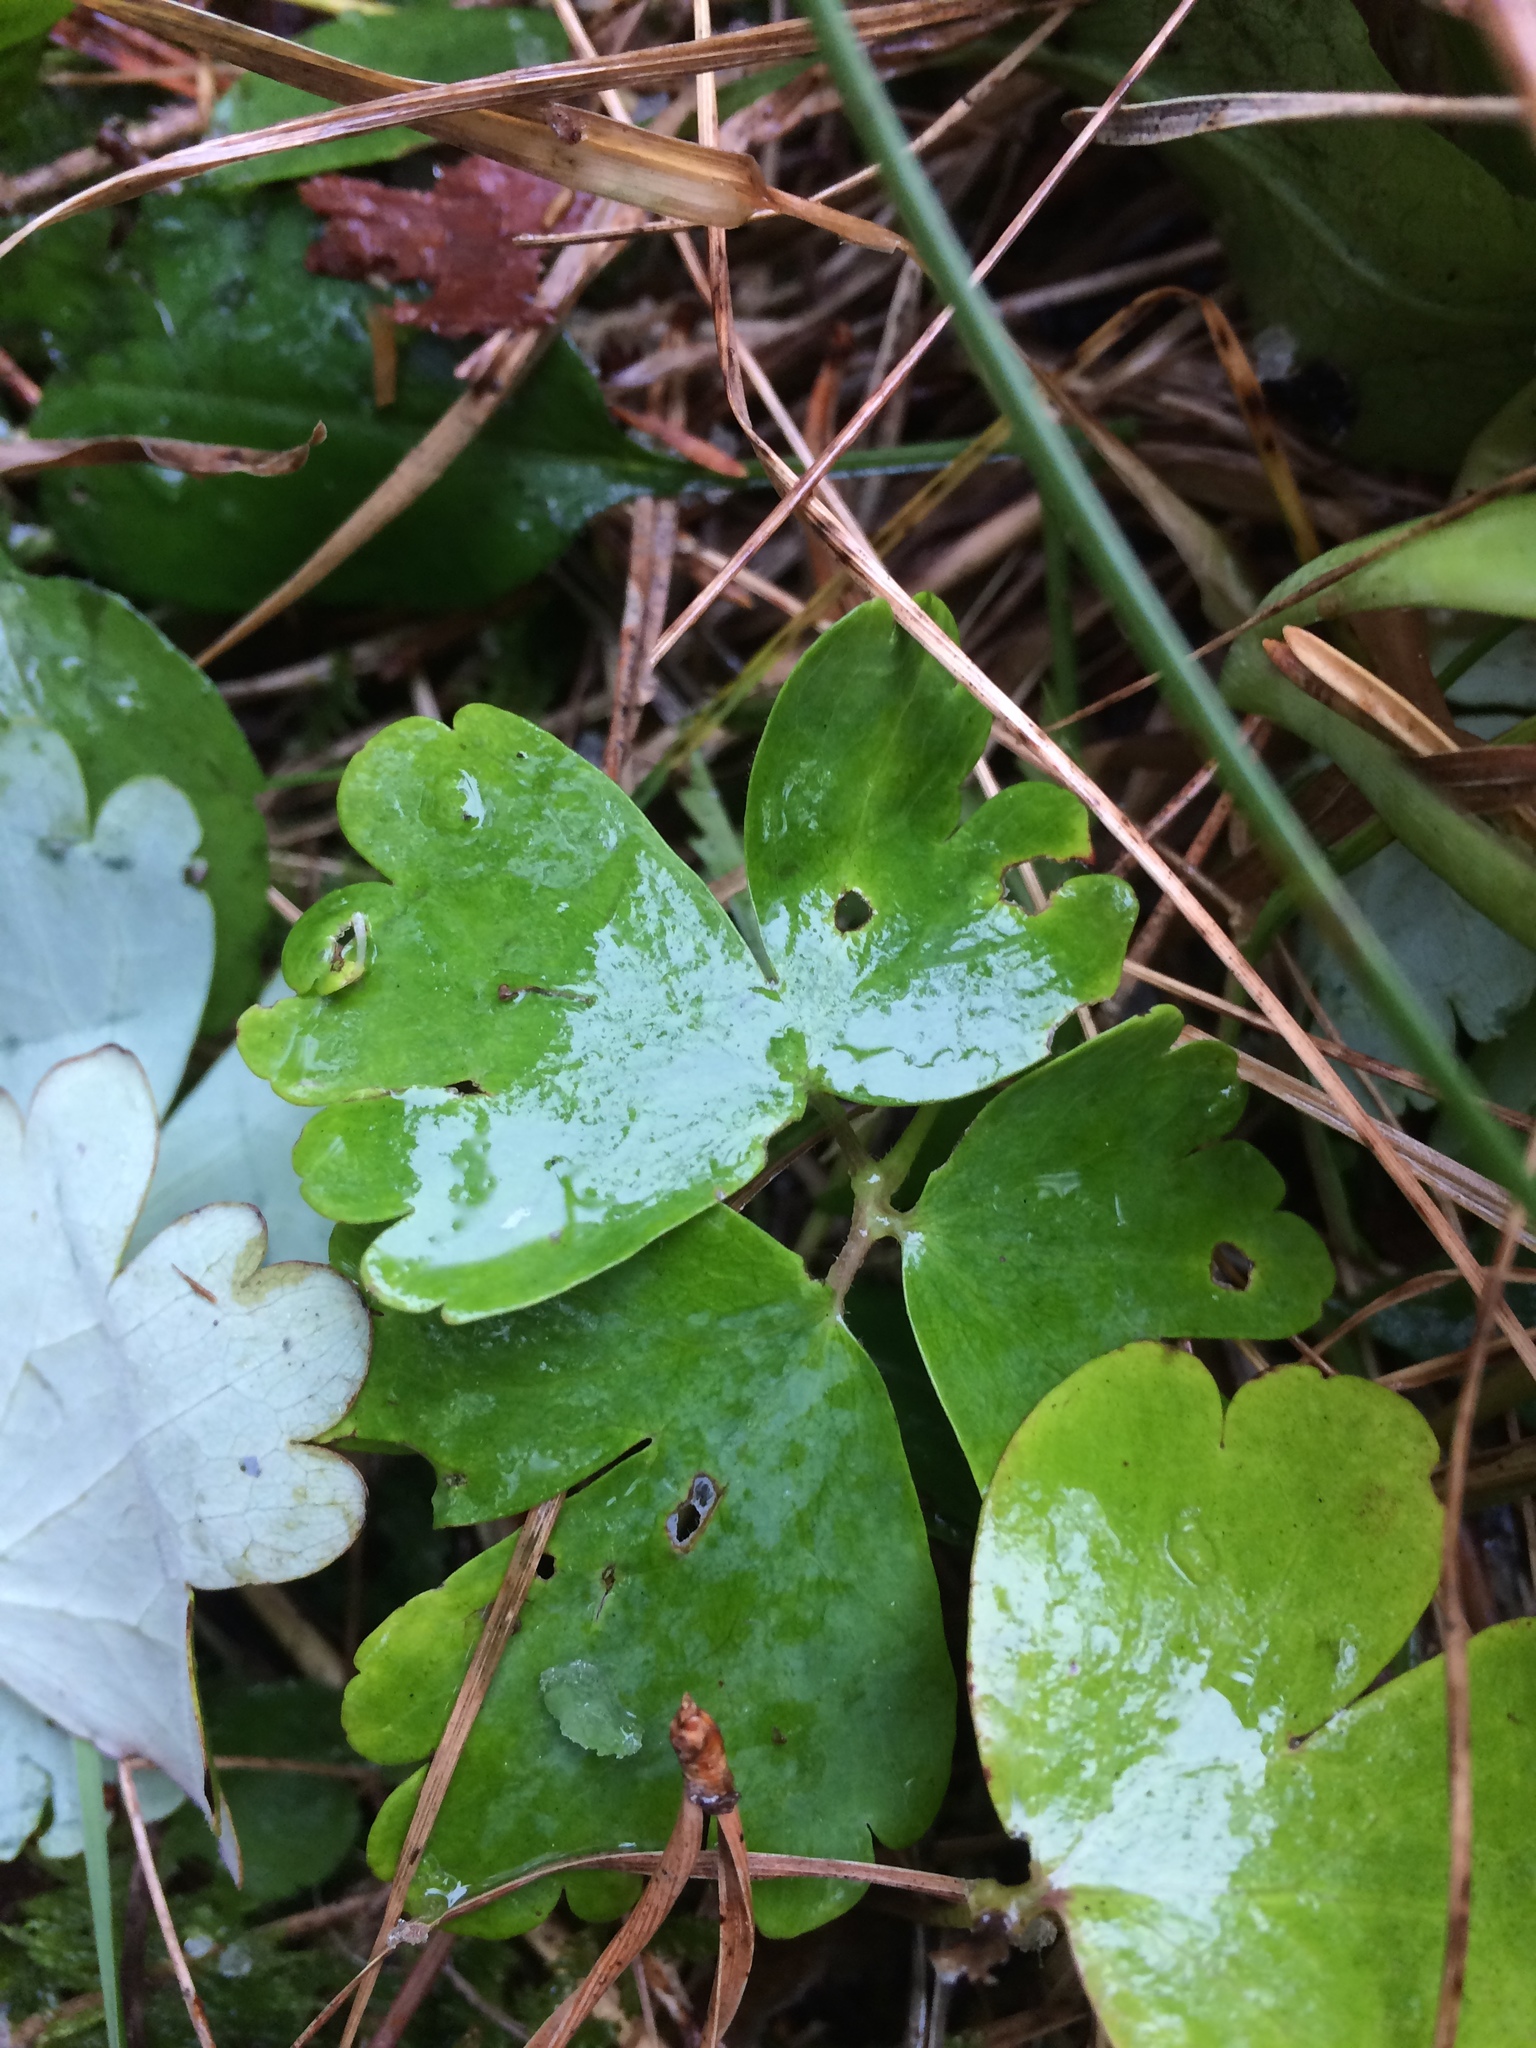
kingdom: Plantae
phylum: Tracheophyta
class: Magnoliopsida
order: Ranunculales
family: Ranunculaceae
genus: Aquilegia
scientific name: Aquilegia canadensis
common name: American columbine
